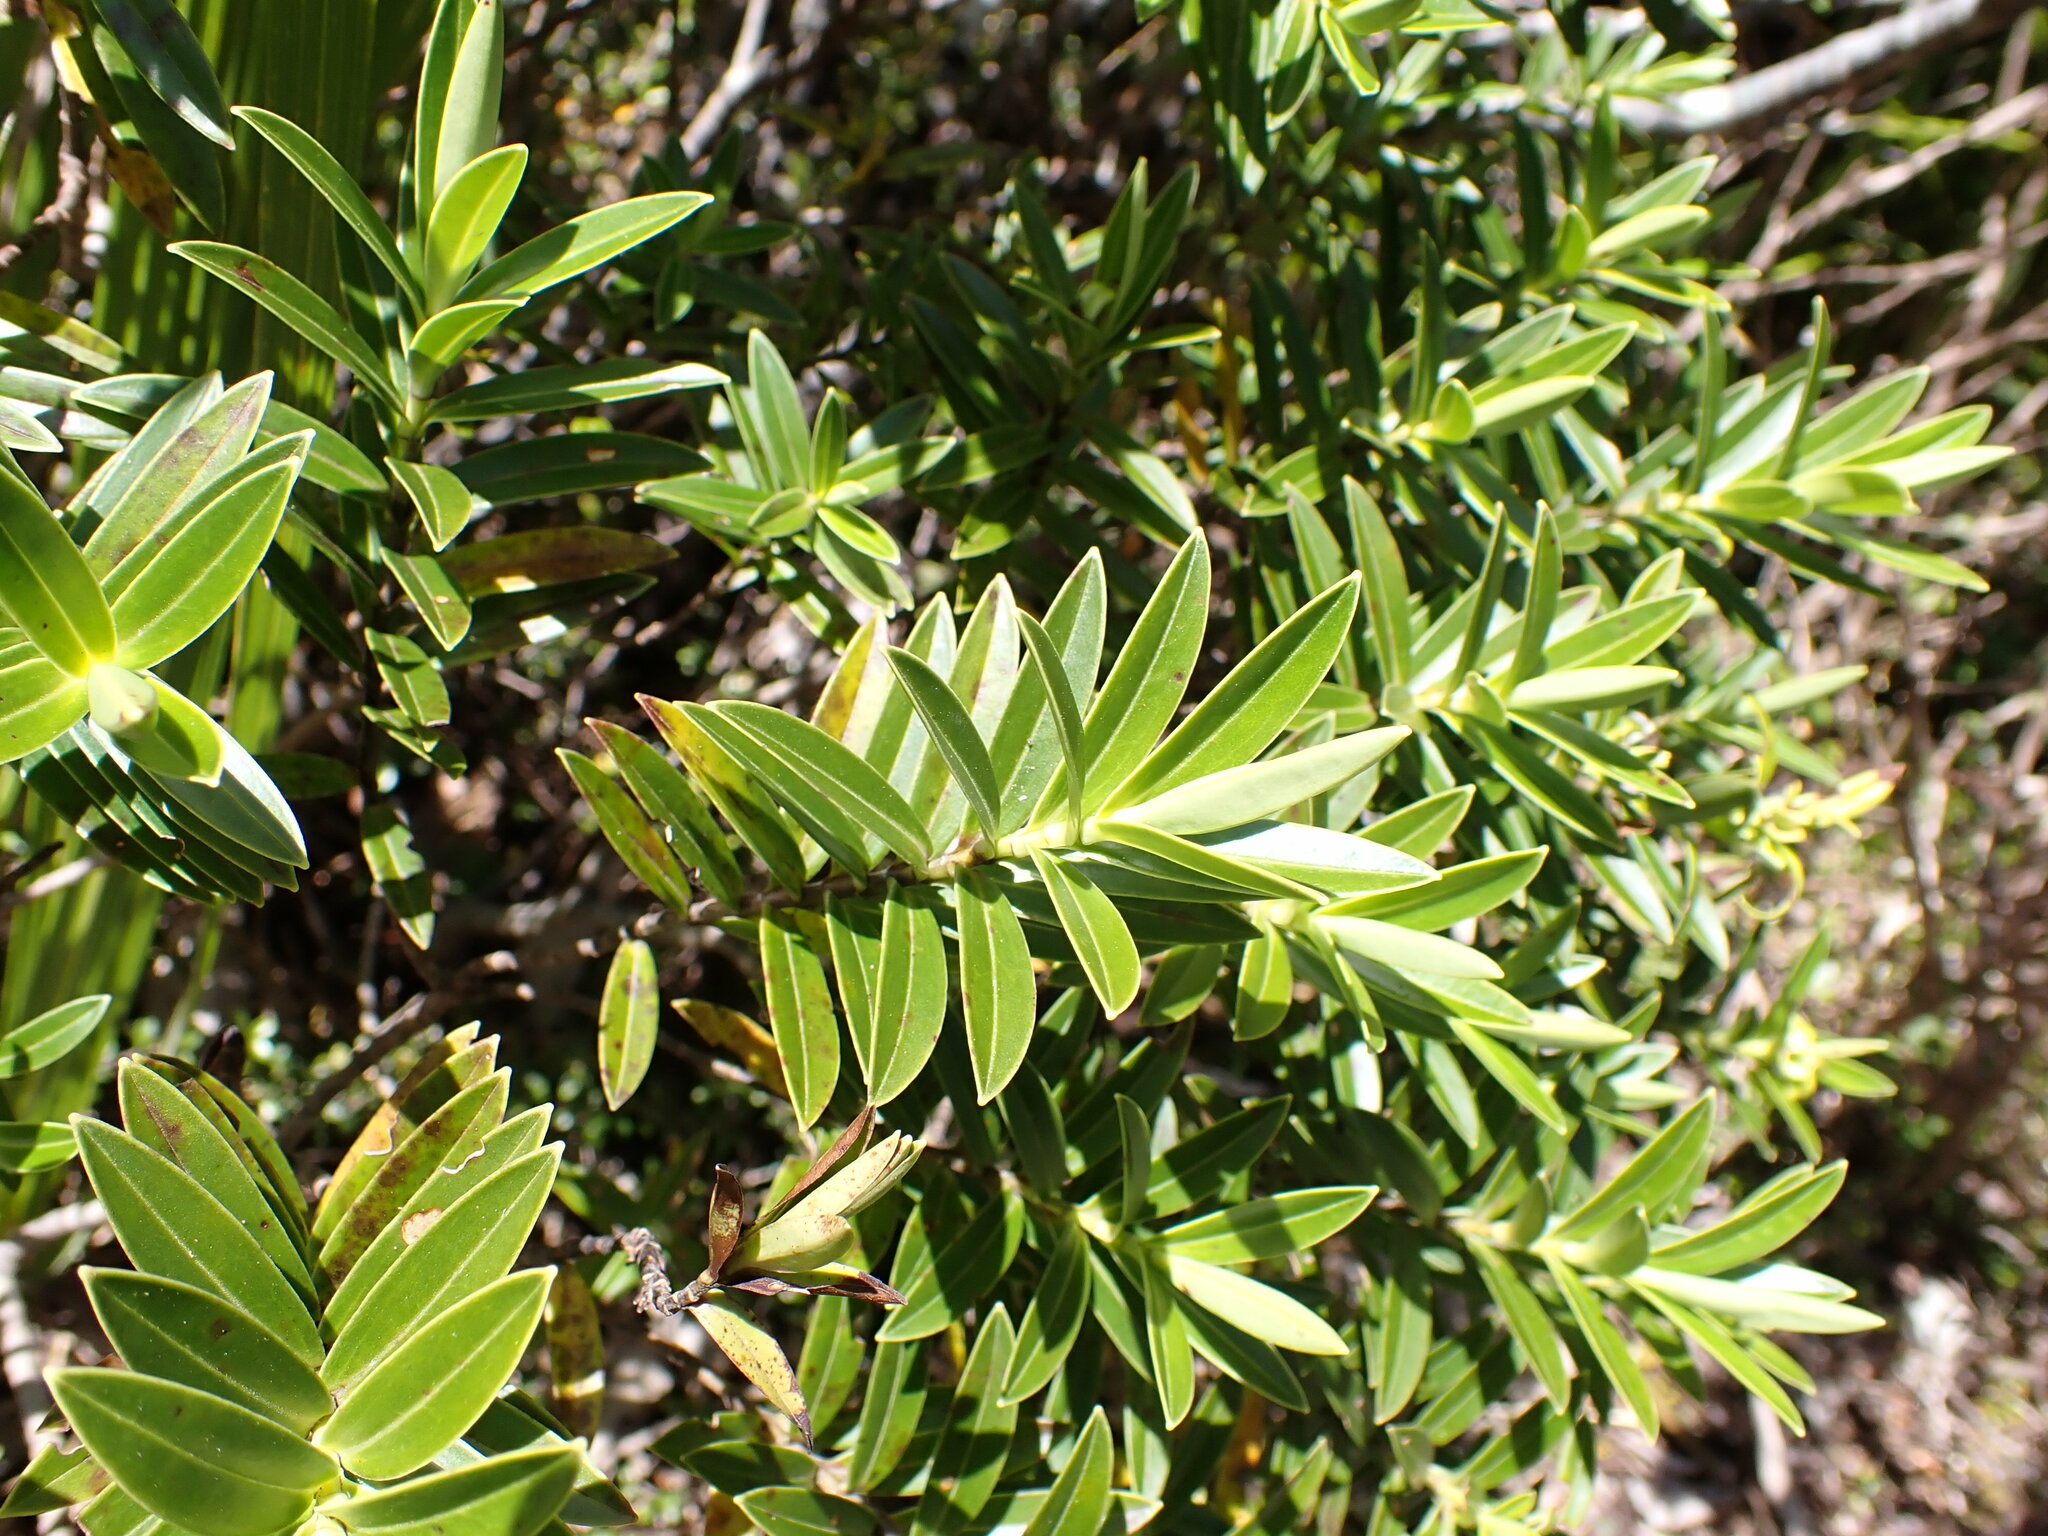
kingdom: Plantae
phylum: Tracheophyta
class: Magnoliopsida
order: Lamiales
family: Plantaginaceae
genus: Veronica
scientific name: Veronica truncatula
